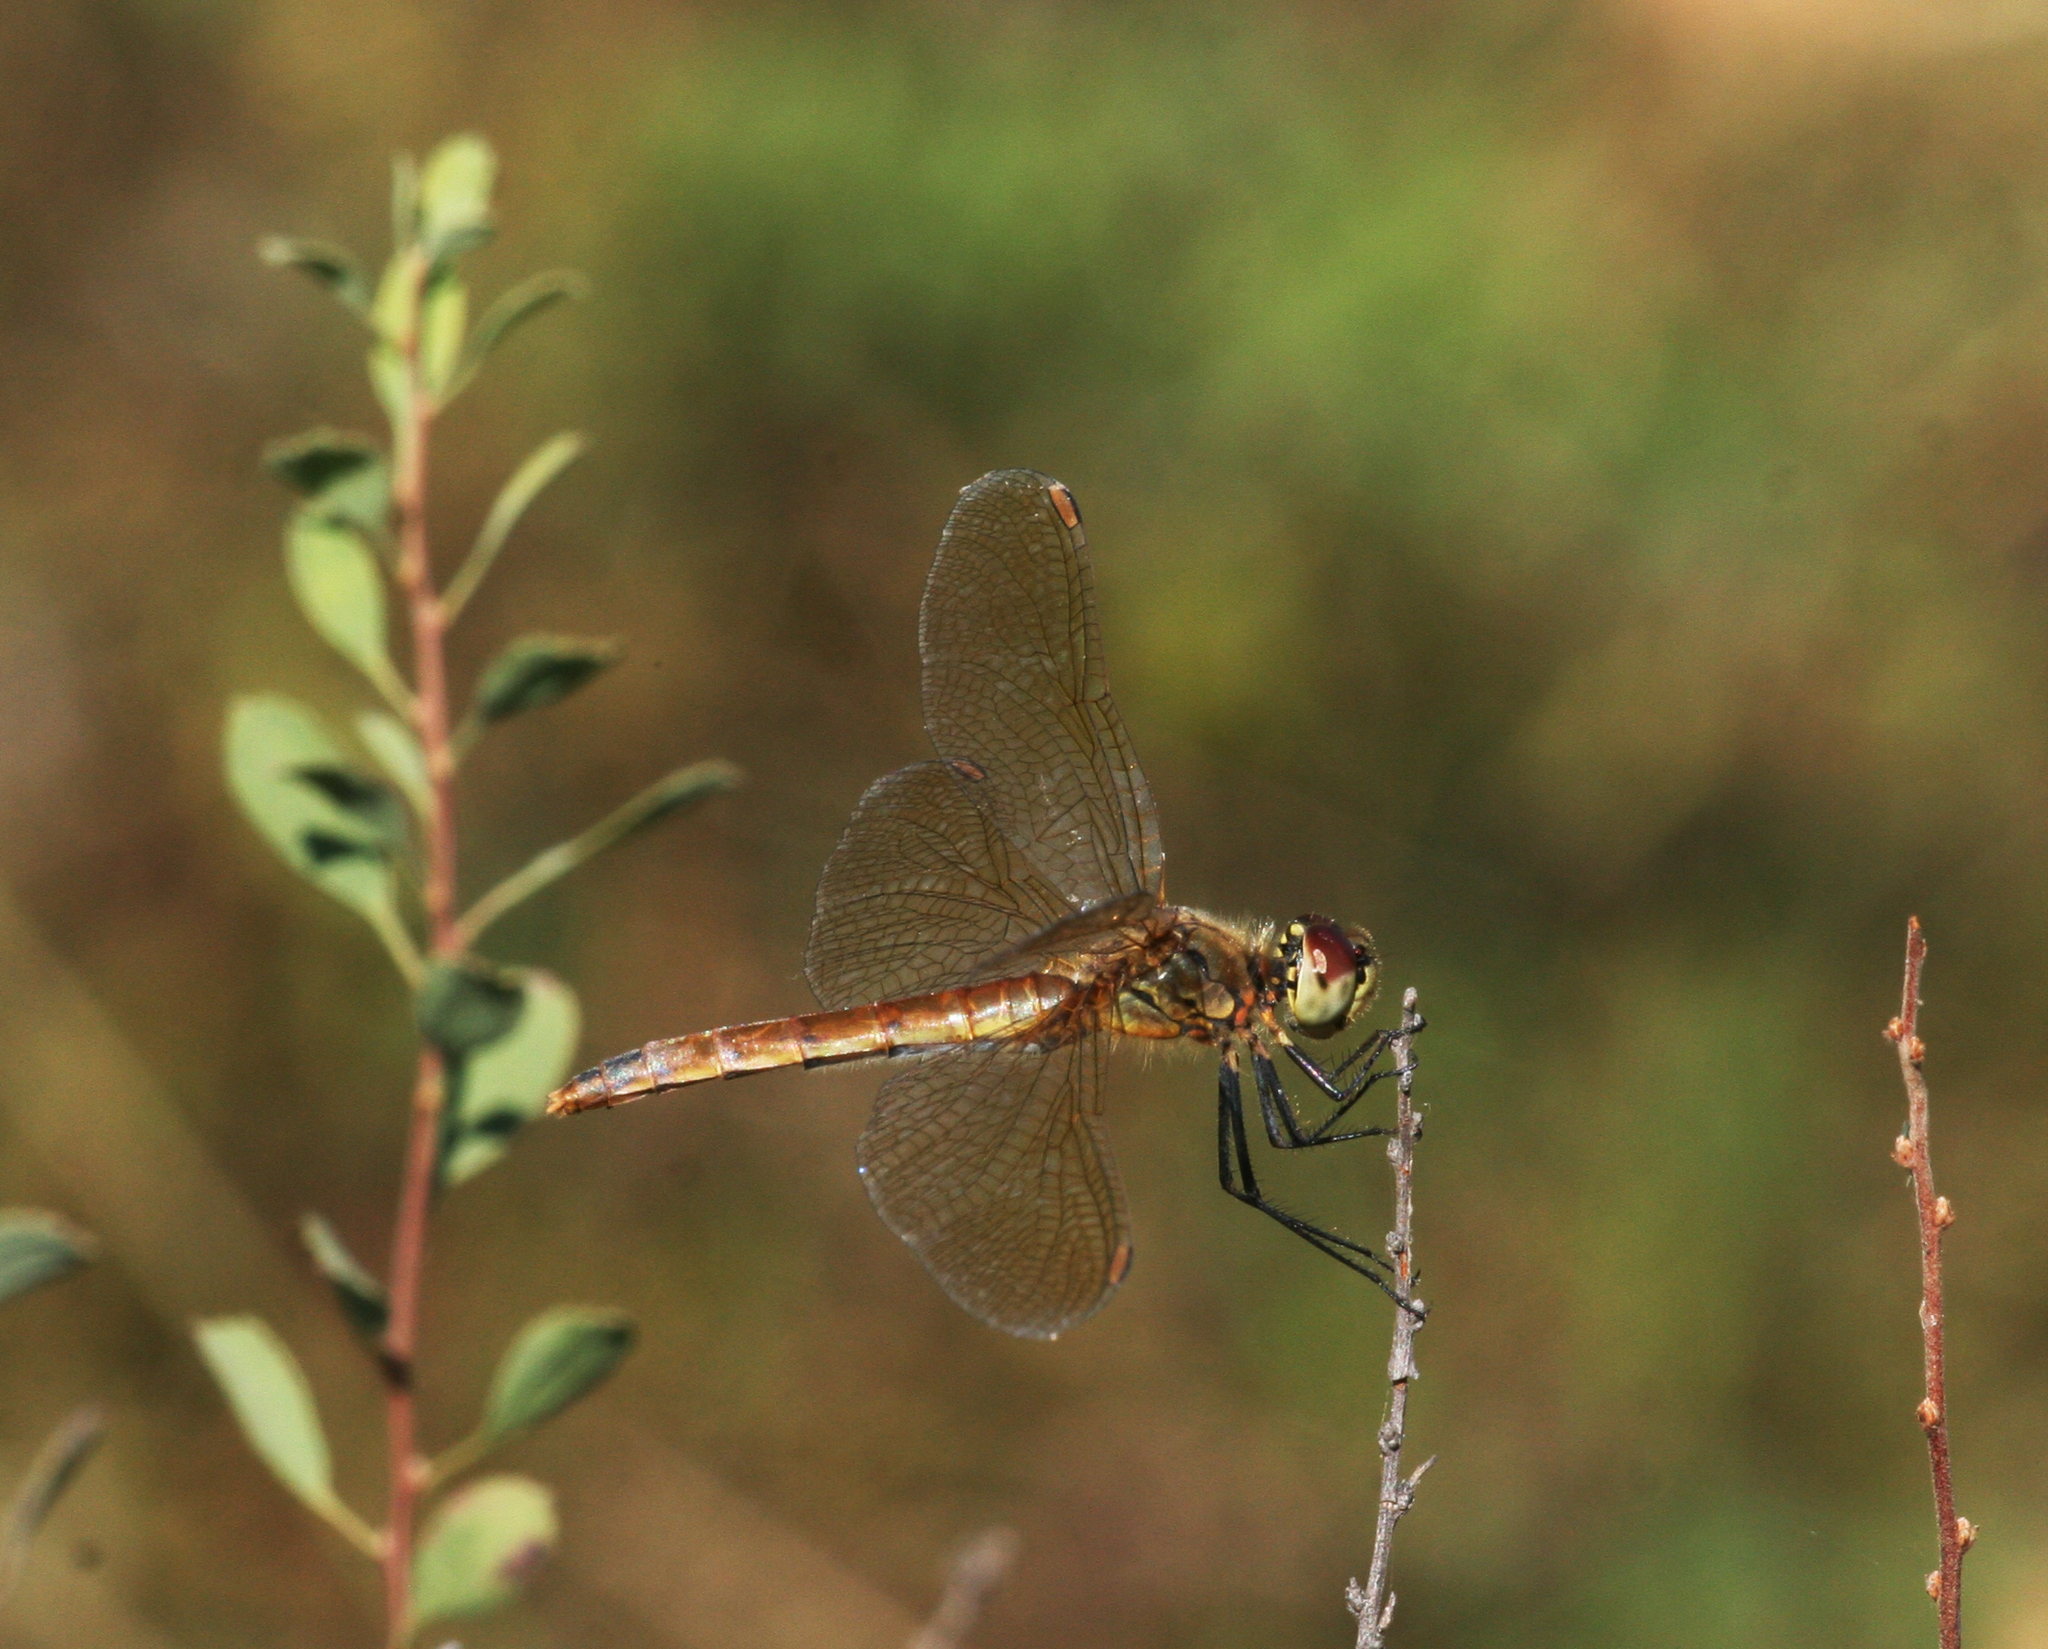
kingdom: Animalia
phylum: Arthropoda
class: Insecta
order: Odonata
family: Libellulidae
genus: Sympetrum
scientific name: Sympetrum depressiusculum
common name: Spotted darter
